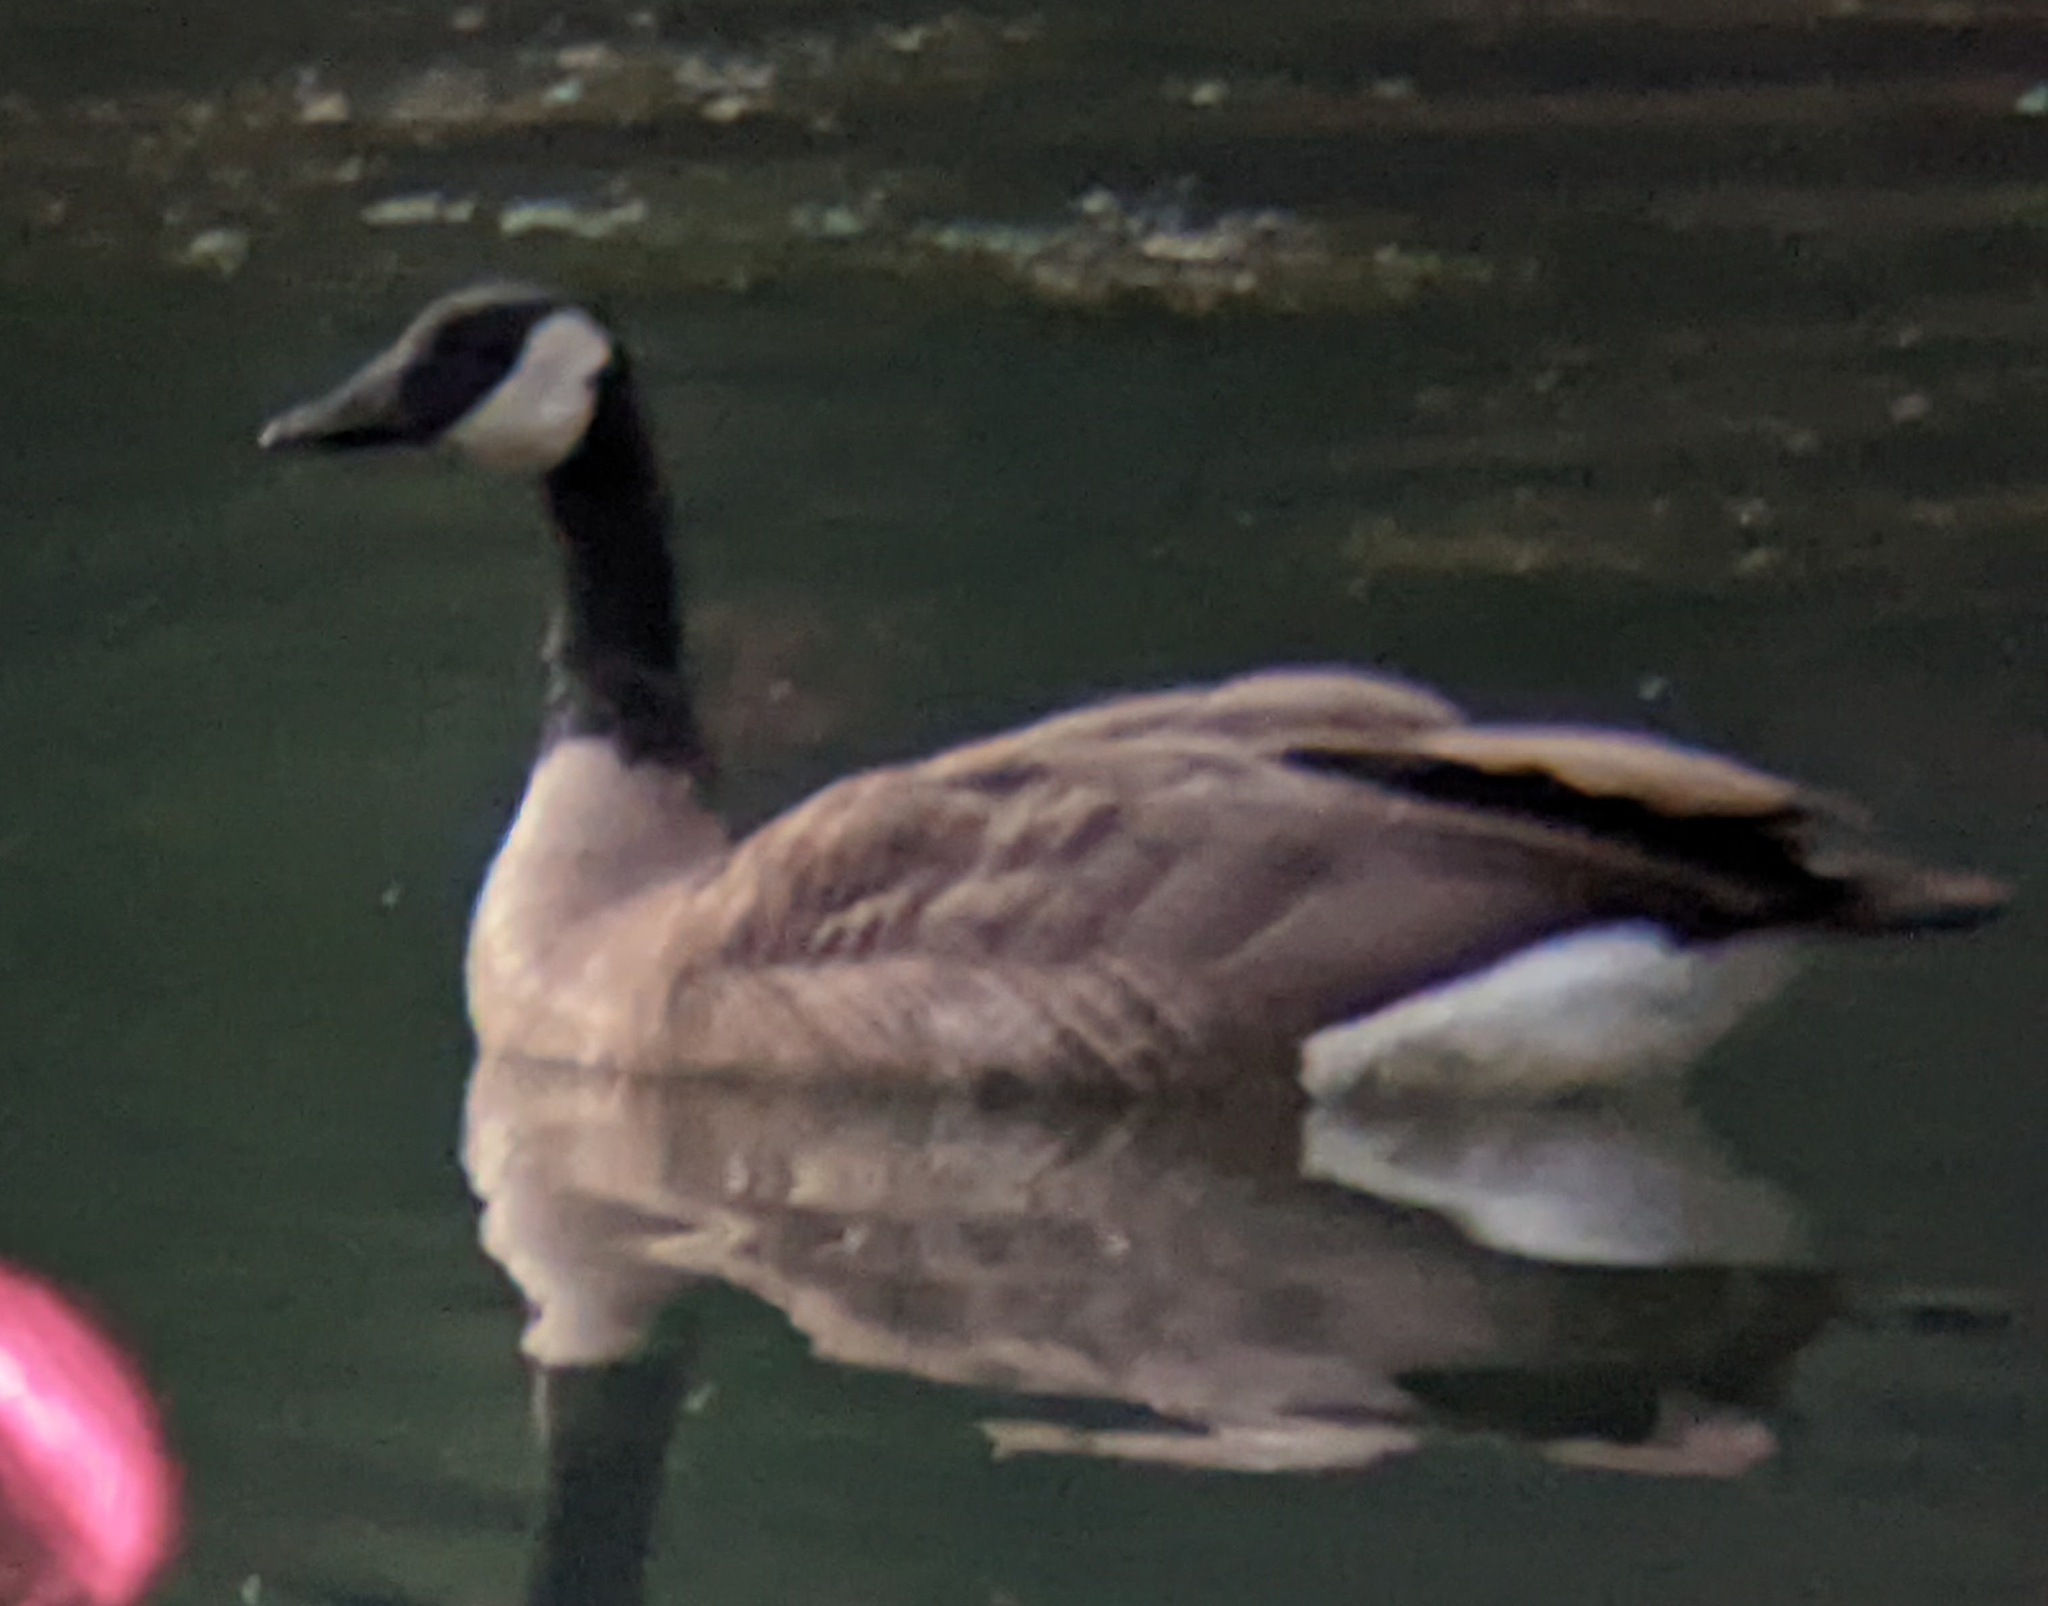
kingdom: Animalia
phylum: Chordata
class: Aves
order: Anseriformes
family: Anatidae
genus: Branta
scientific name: Branta canadensis
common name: Canada goose
